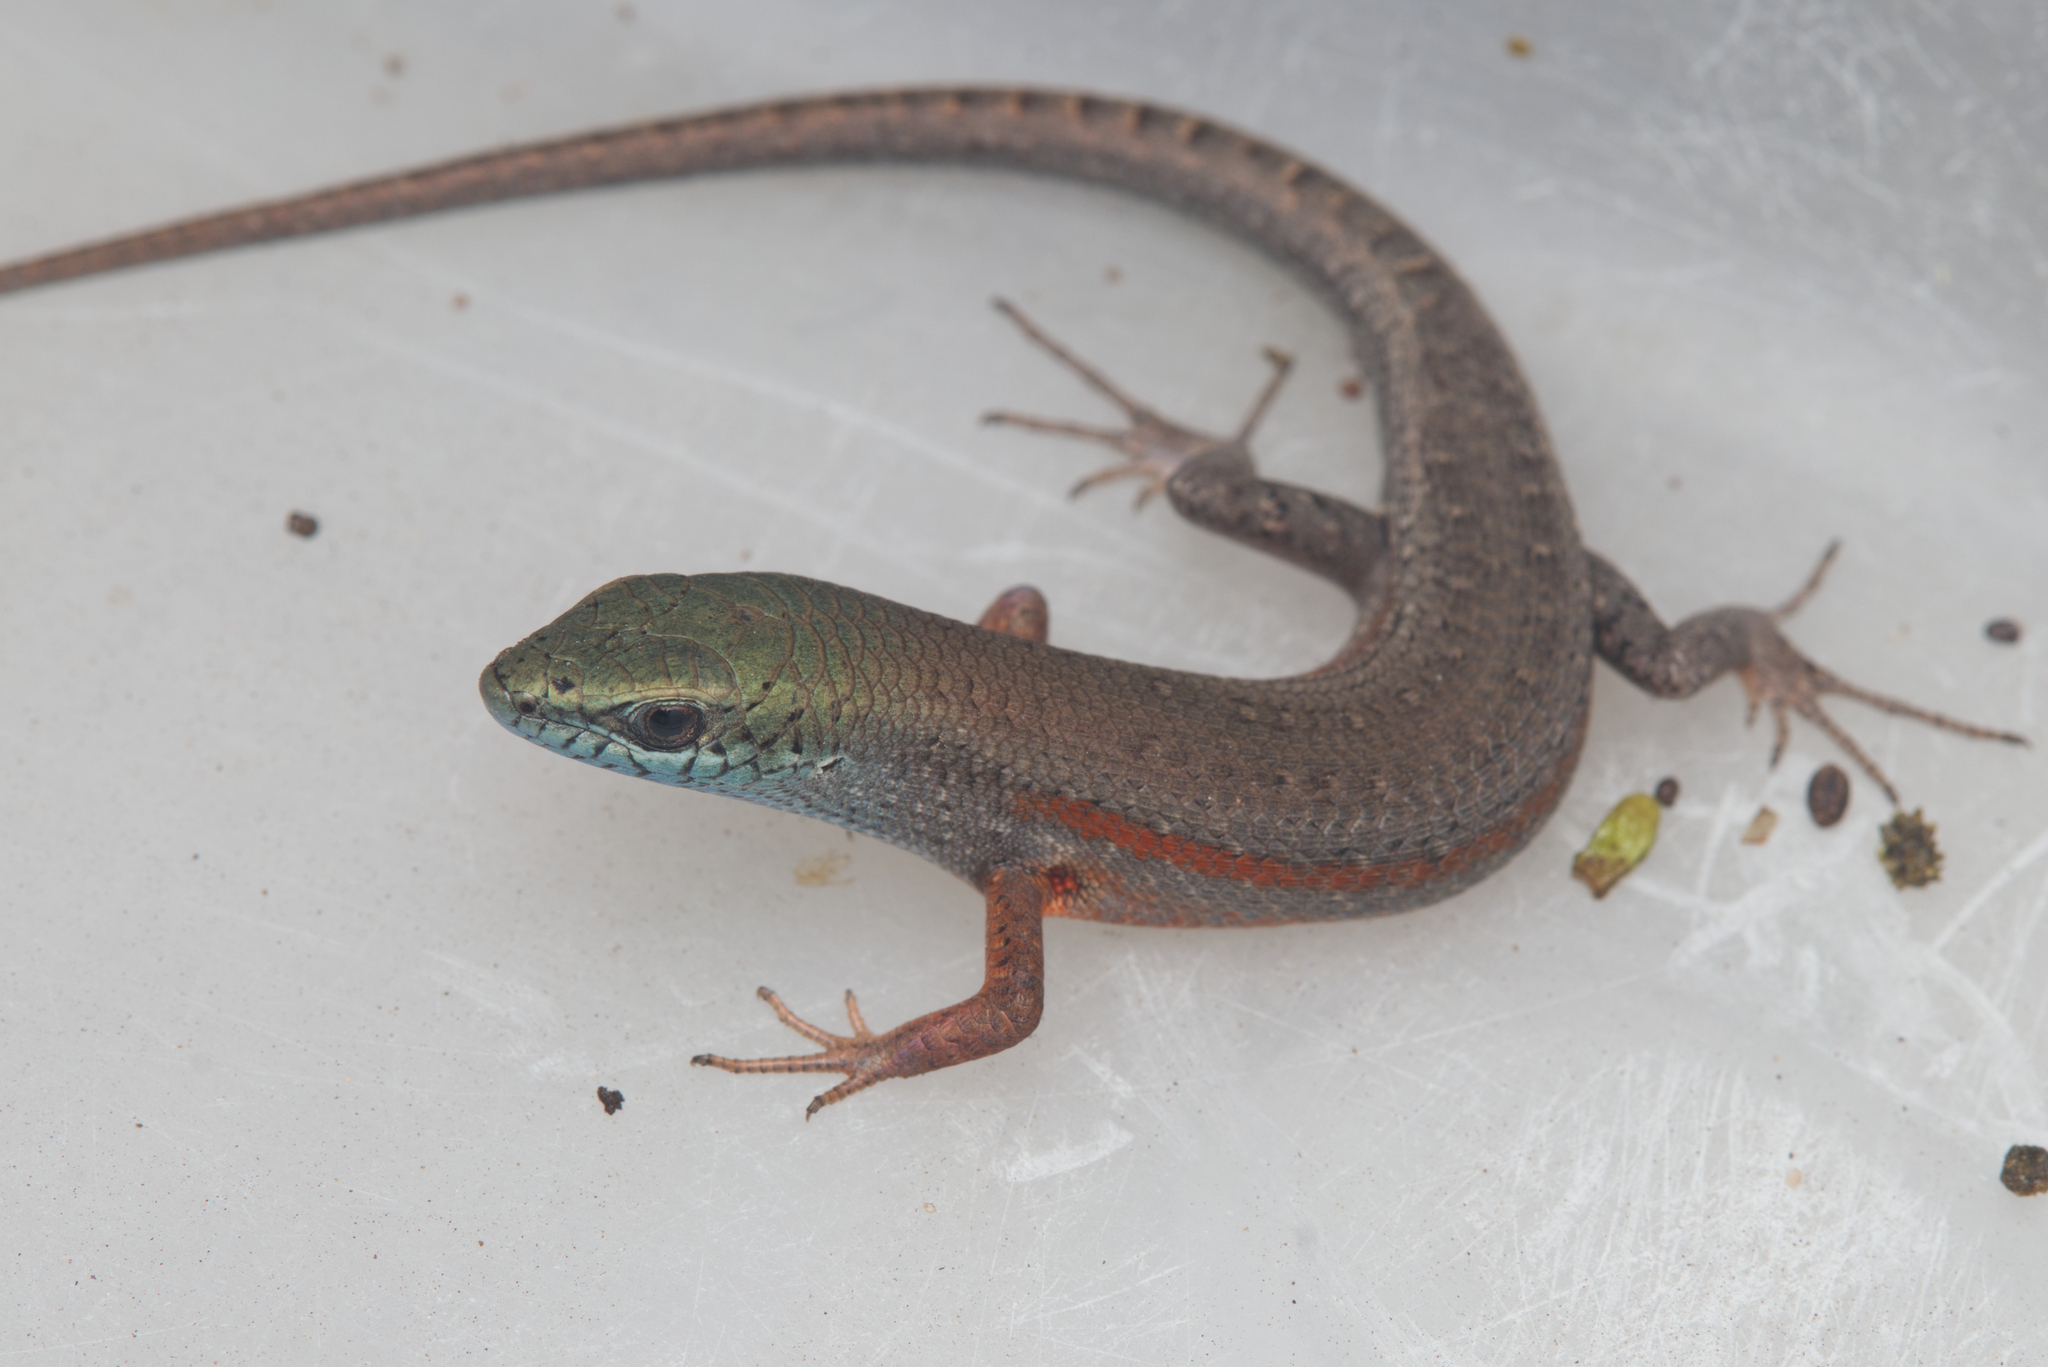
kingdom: Animalia
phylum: Chordata
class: Squamata
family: Scincidae
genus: Carlia
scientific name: Carlia pectoralis
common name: Open-litter rainbow-skink
